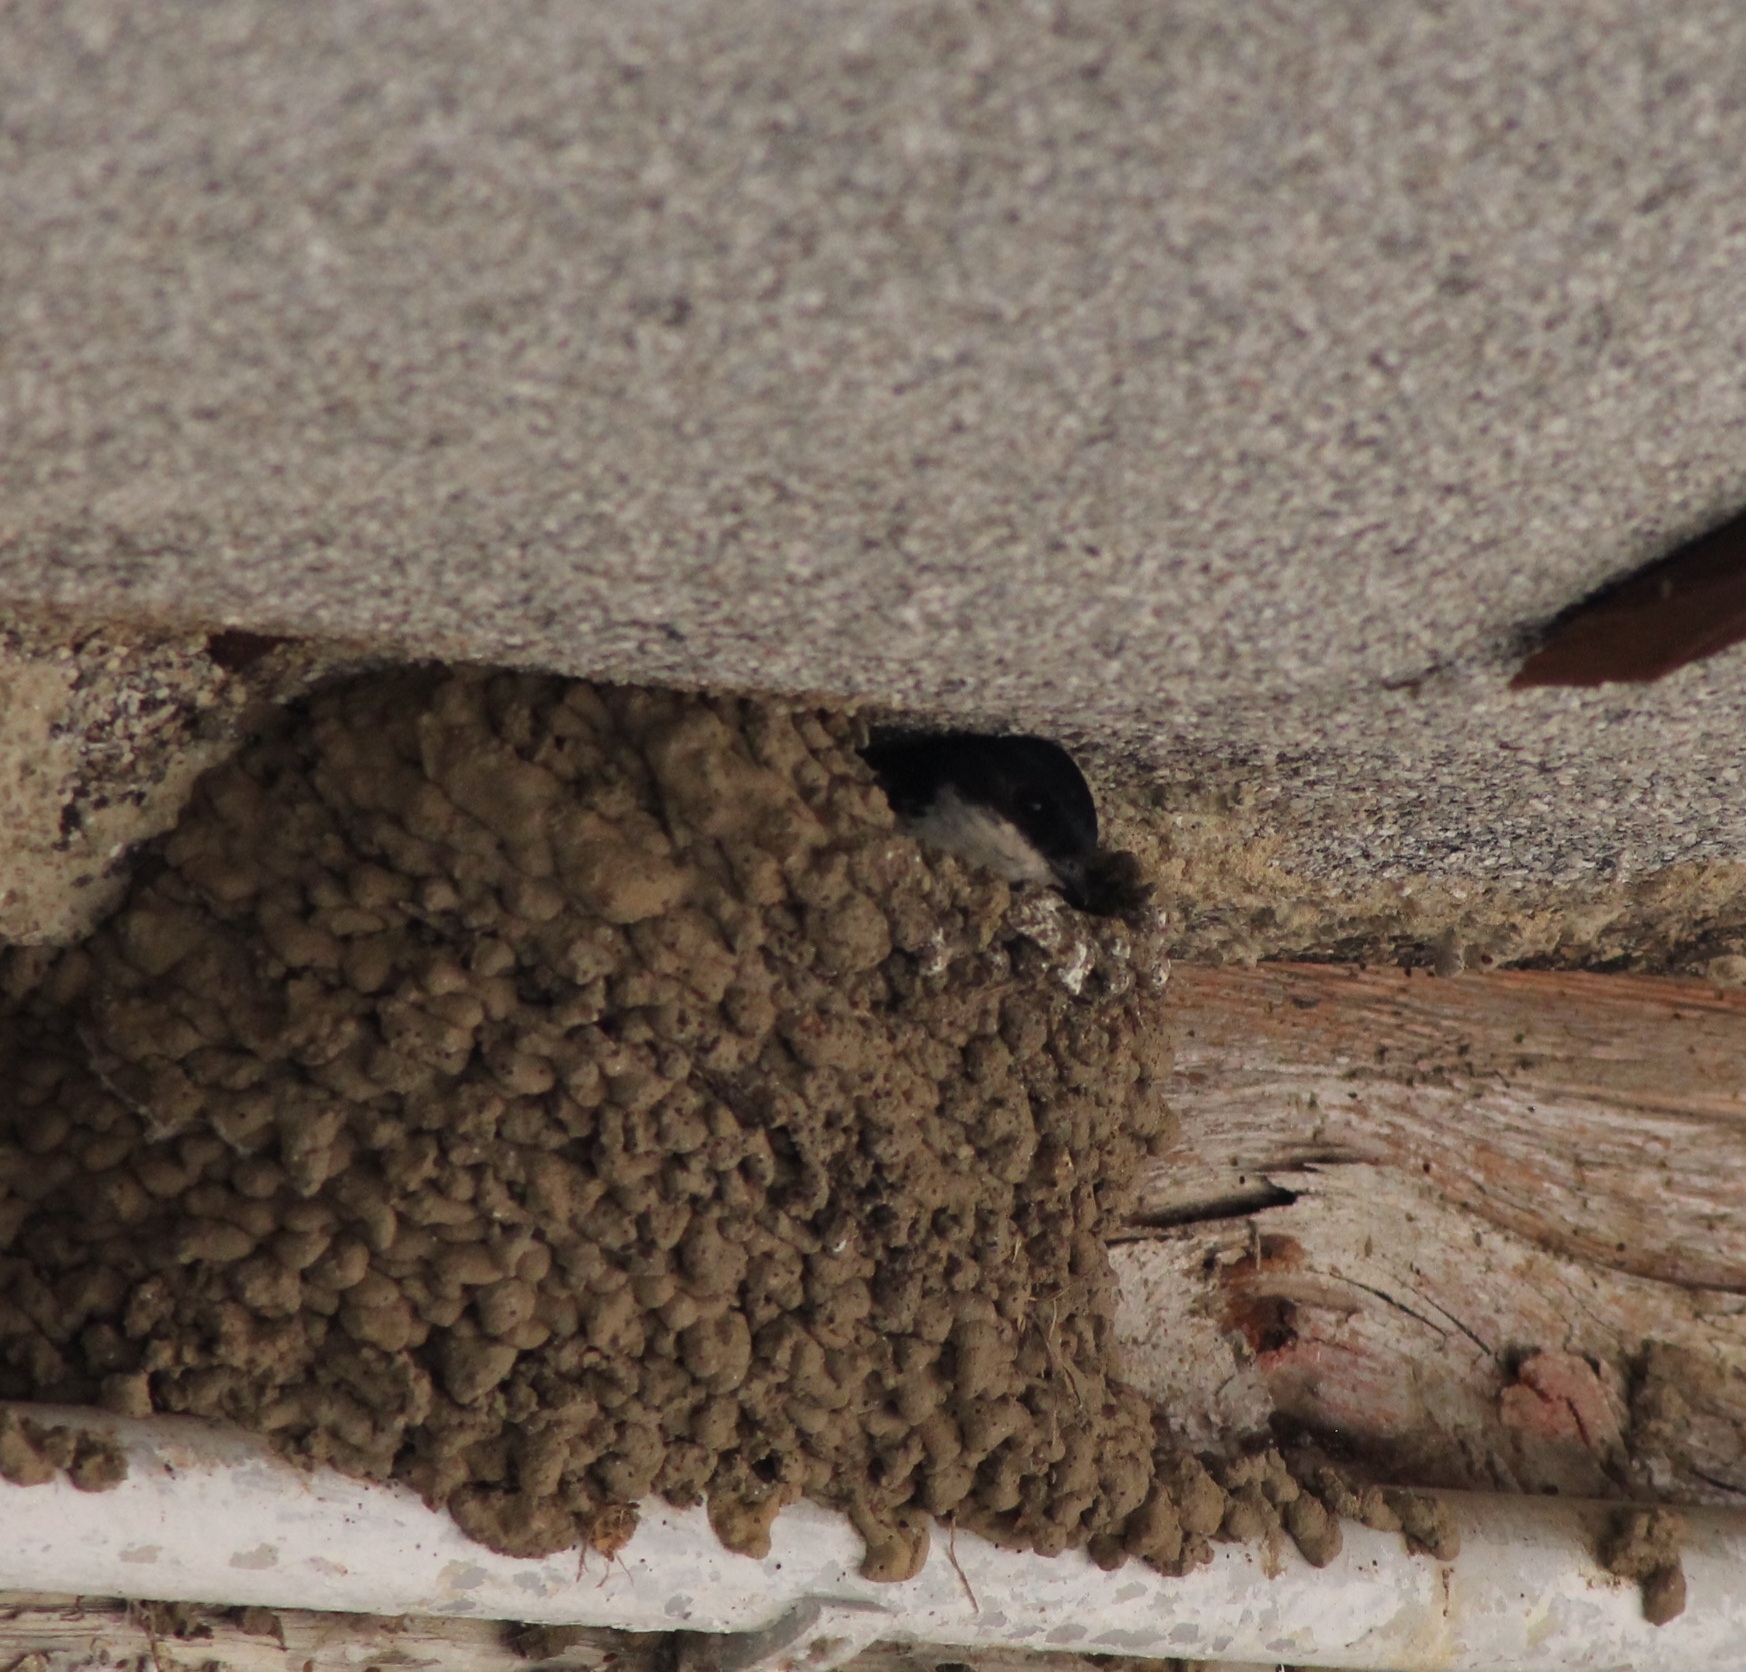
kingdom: Animalia
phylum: Chordata
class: Aves
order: Passeriformes
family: Hirundinidae
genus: Delichon
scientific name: Delichon urbicum
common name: Common house martin
